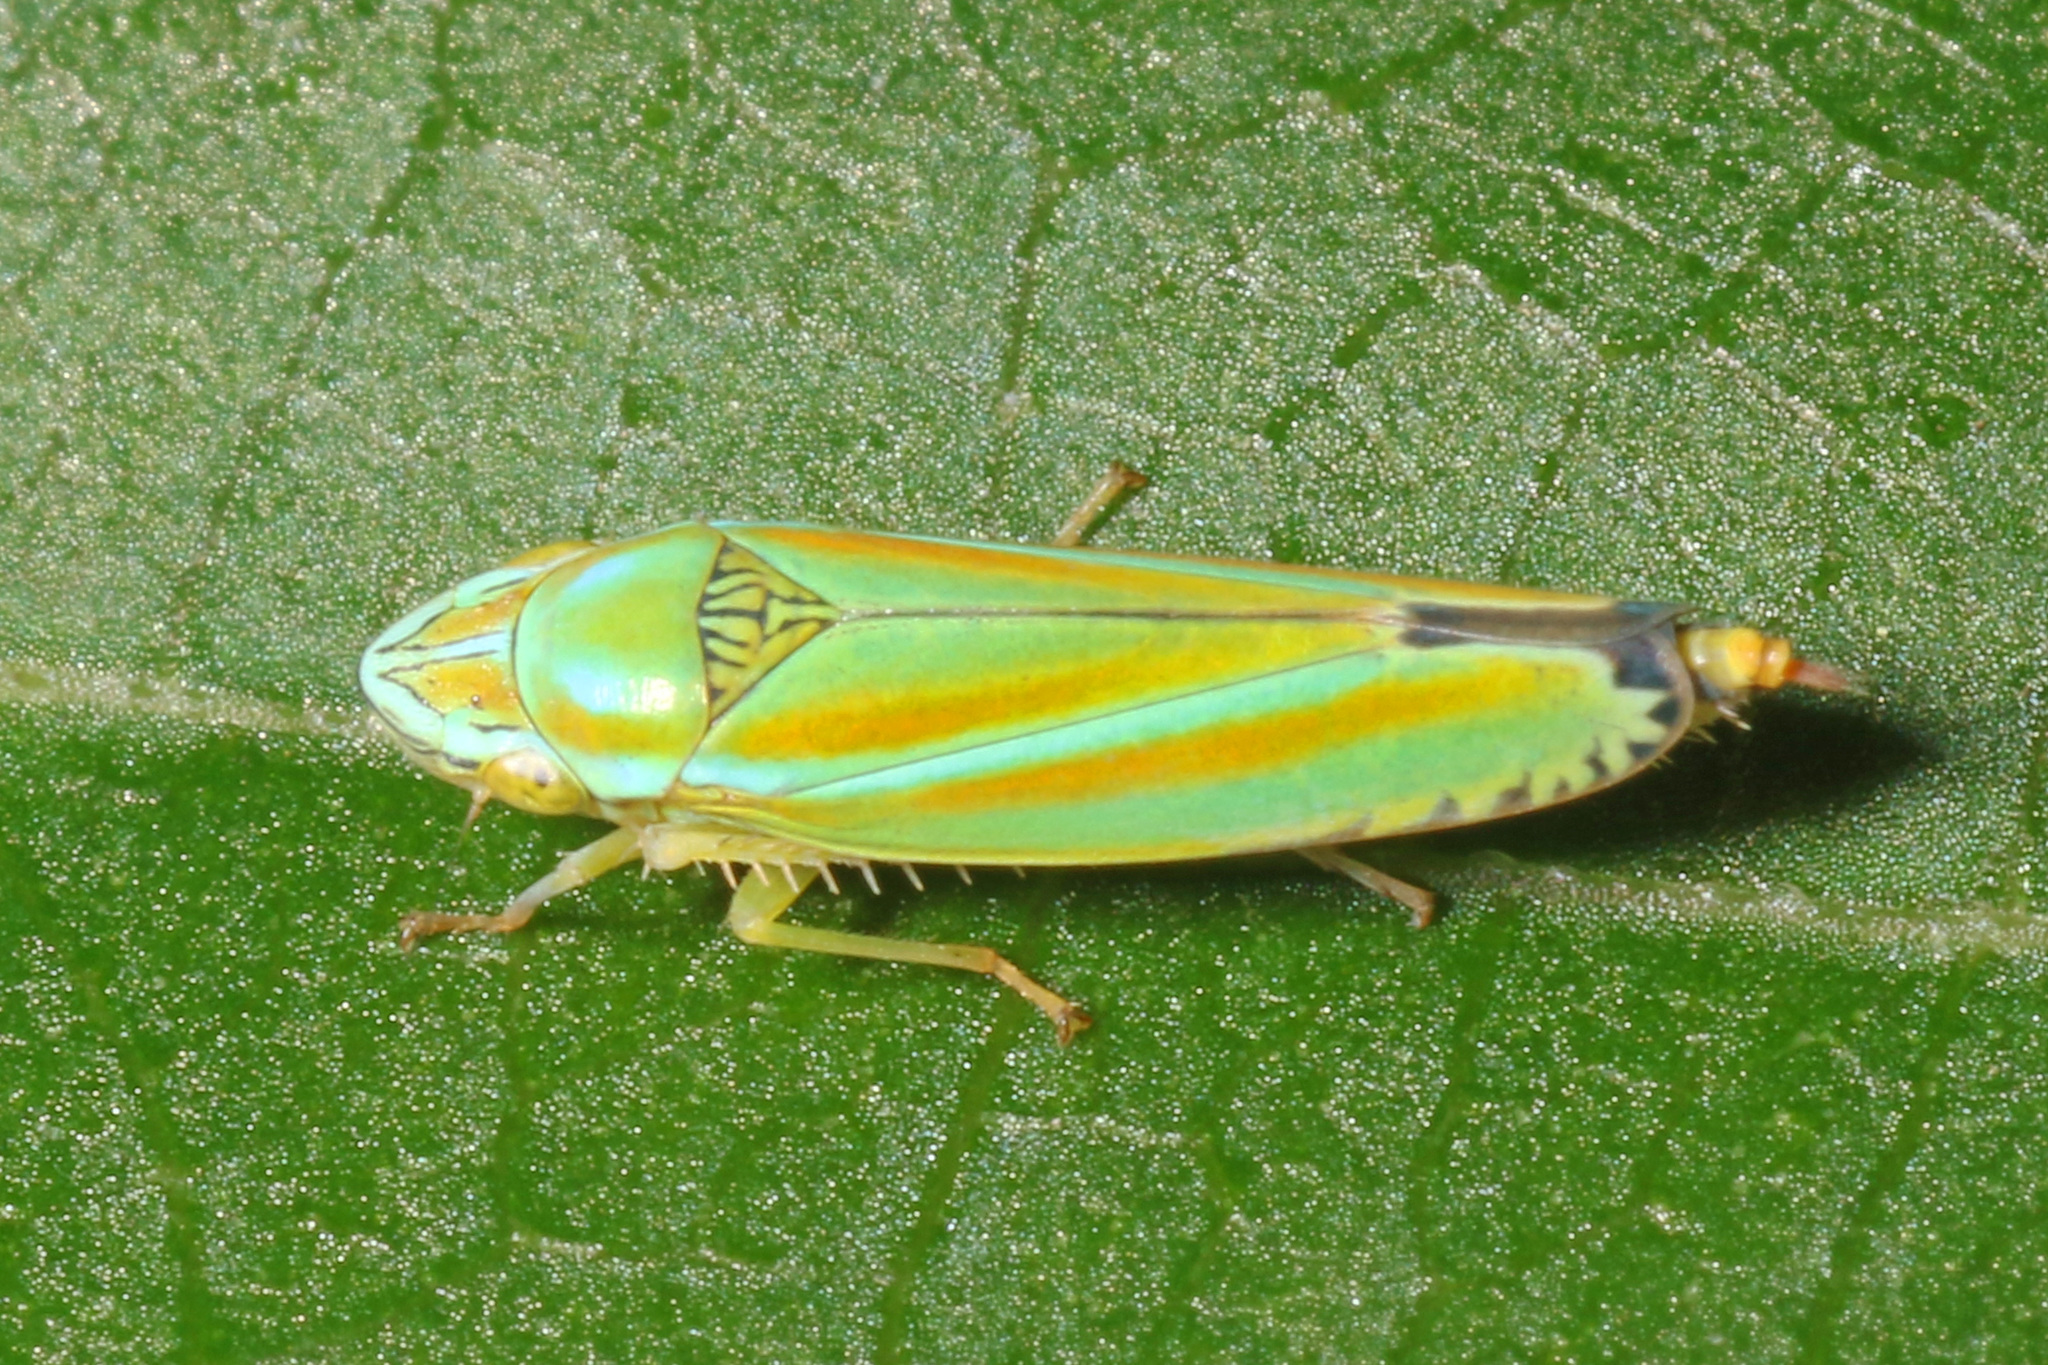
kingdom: Animalia
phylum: Arthropoda
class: Insecta
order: Hemiptera
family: Cicadellidae
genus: Graphocephala
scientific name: Graphocephala versuta
